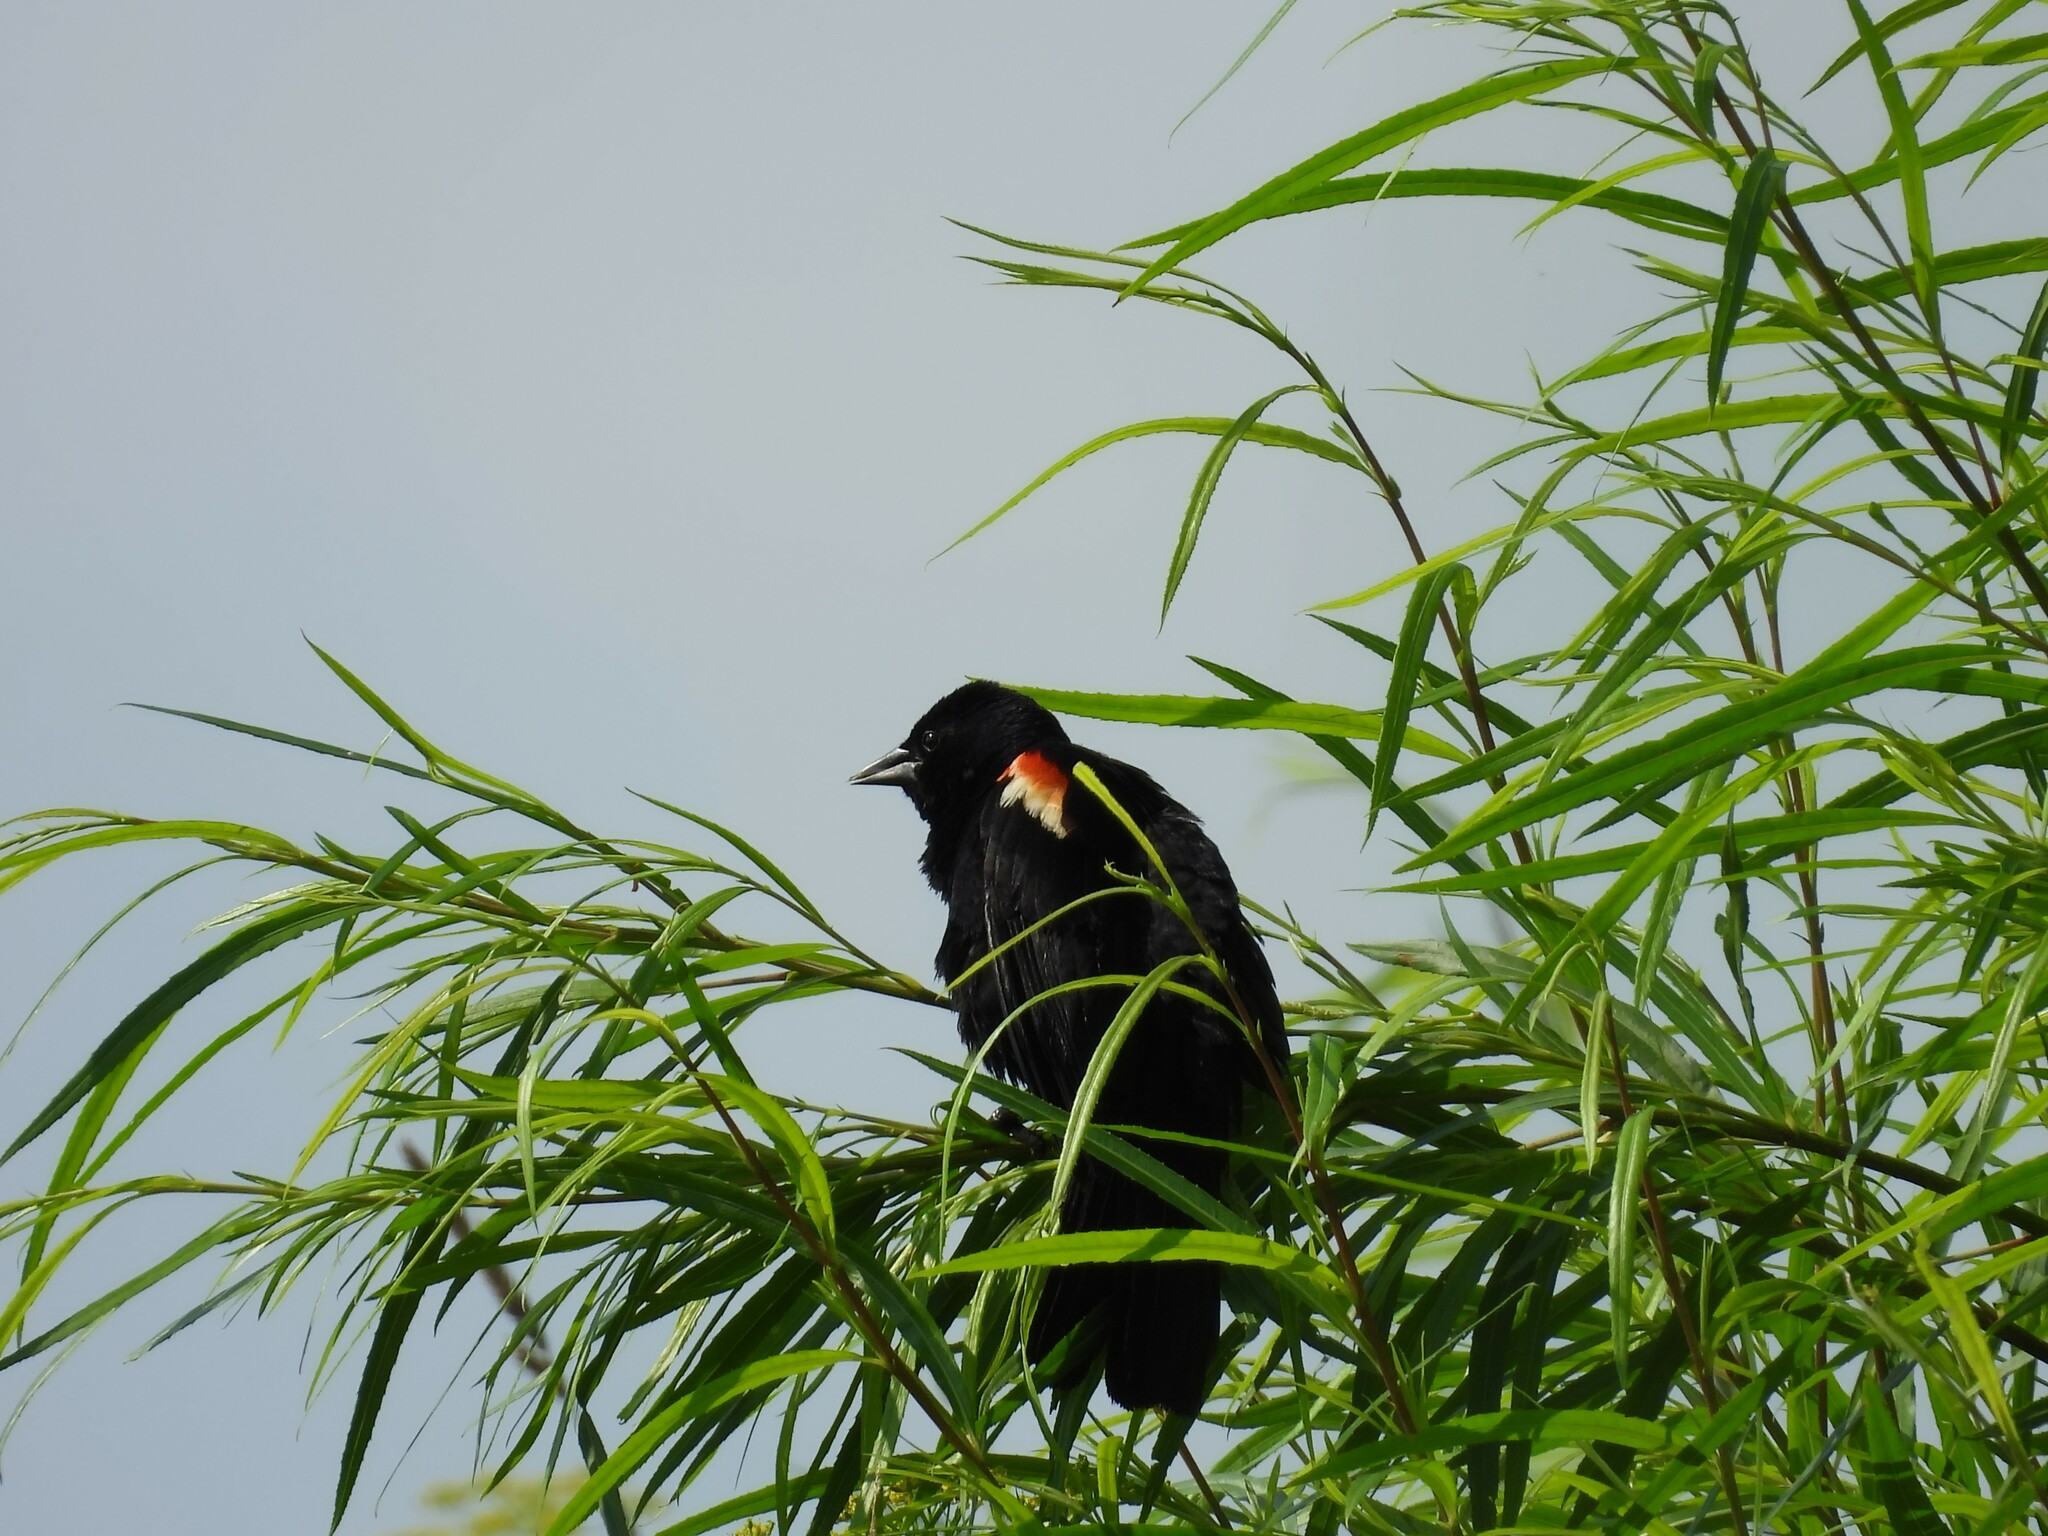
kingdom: Animalia
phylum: Chordata
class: Aves
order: Passeriformes
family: Icteridae
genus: Agelaius
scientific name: Agelaius phoeniceus
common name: Red-winged blackbird
